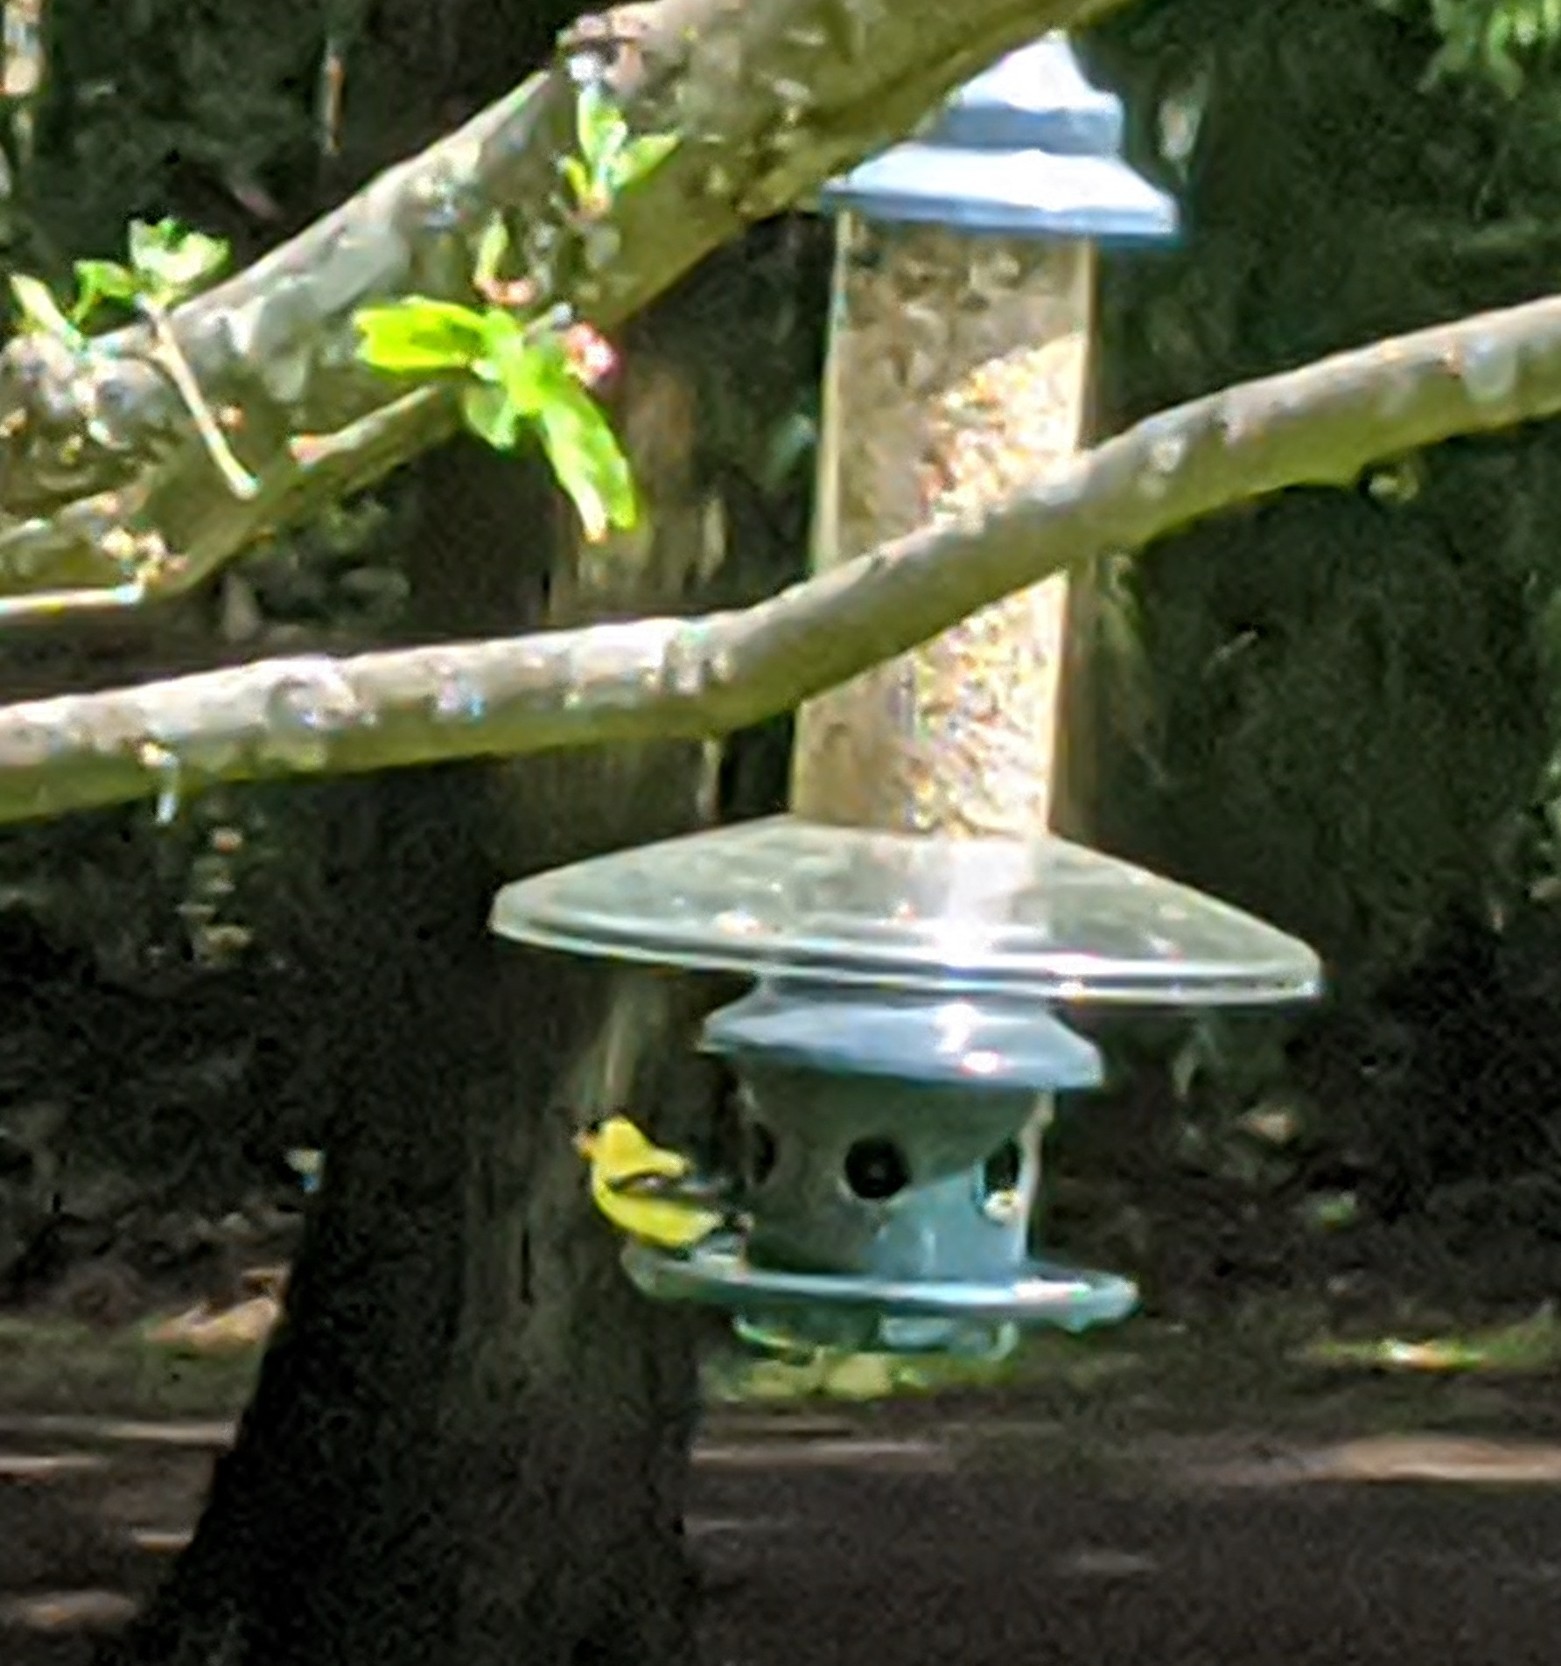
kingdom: Animalia
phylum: Chordata
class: Aves
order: Passeriformes
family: Fringillidae
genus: Spinus
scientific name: Spinus tristis
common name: American goldfinch
